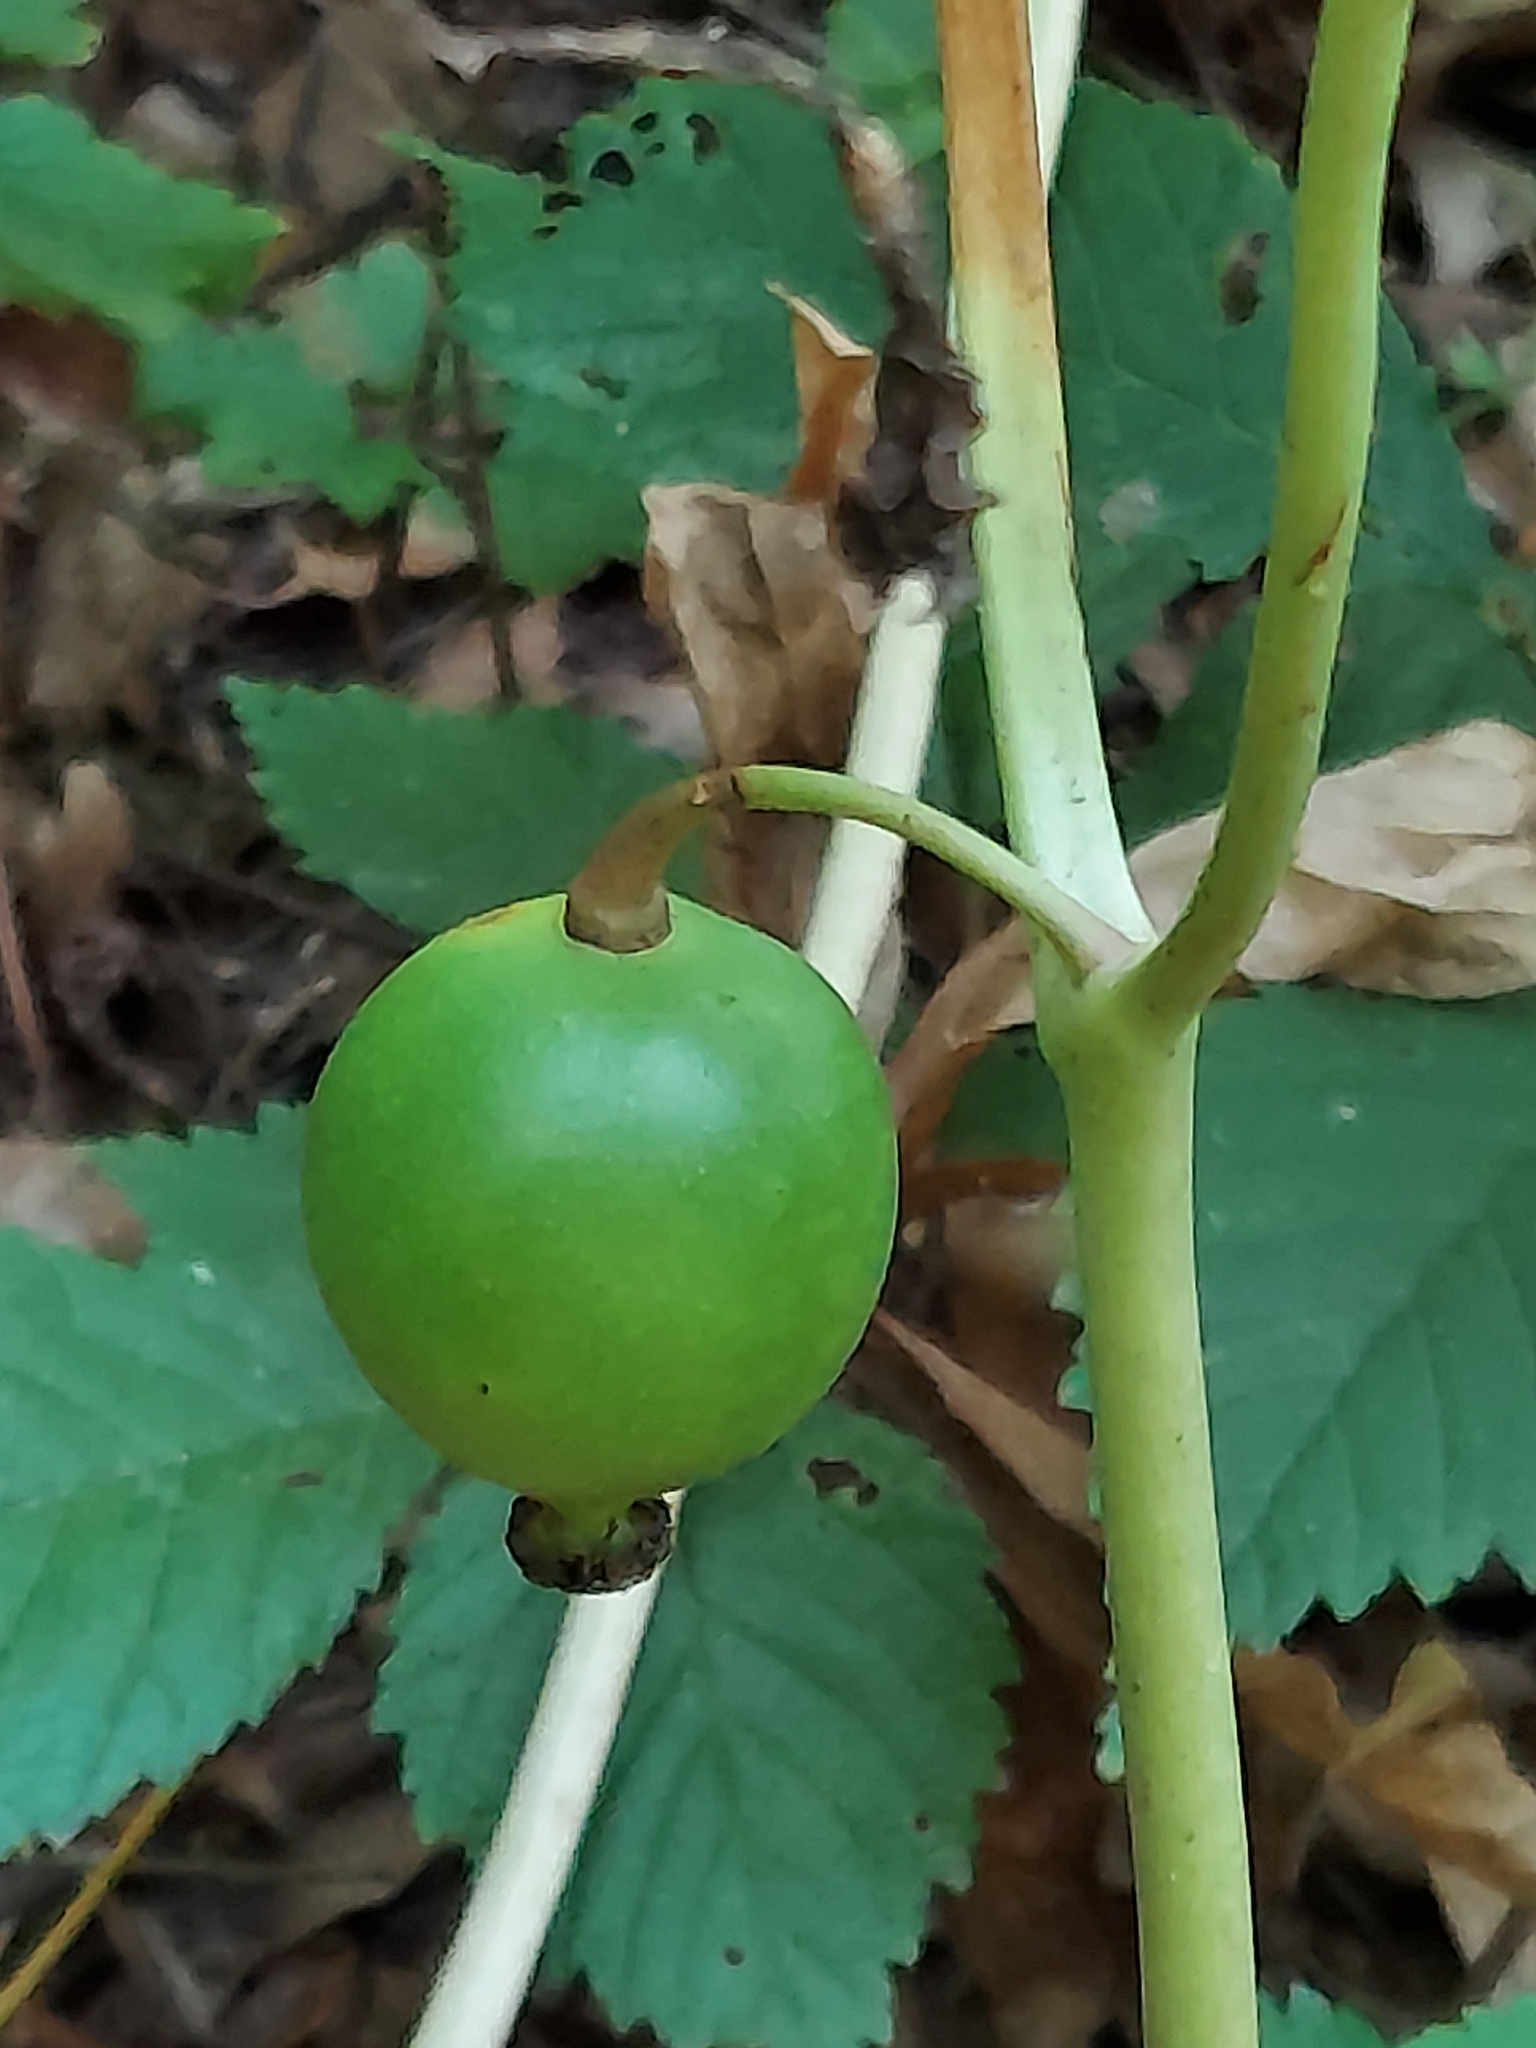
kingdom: Plantae
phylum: Tracheophyta
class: Magnoliopsida
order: Ranunculales
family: Berberidaceae
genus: Podophyllum
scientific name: Podophyllum peltatum
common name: Wild mandrake
